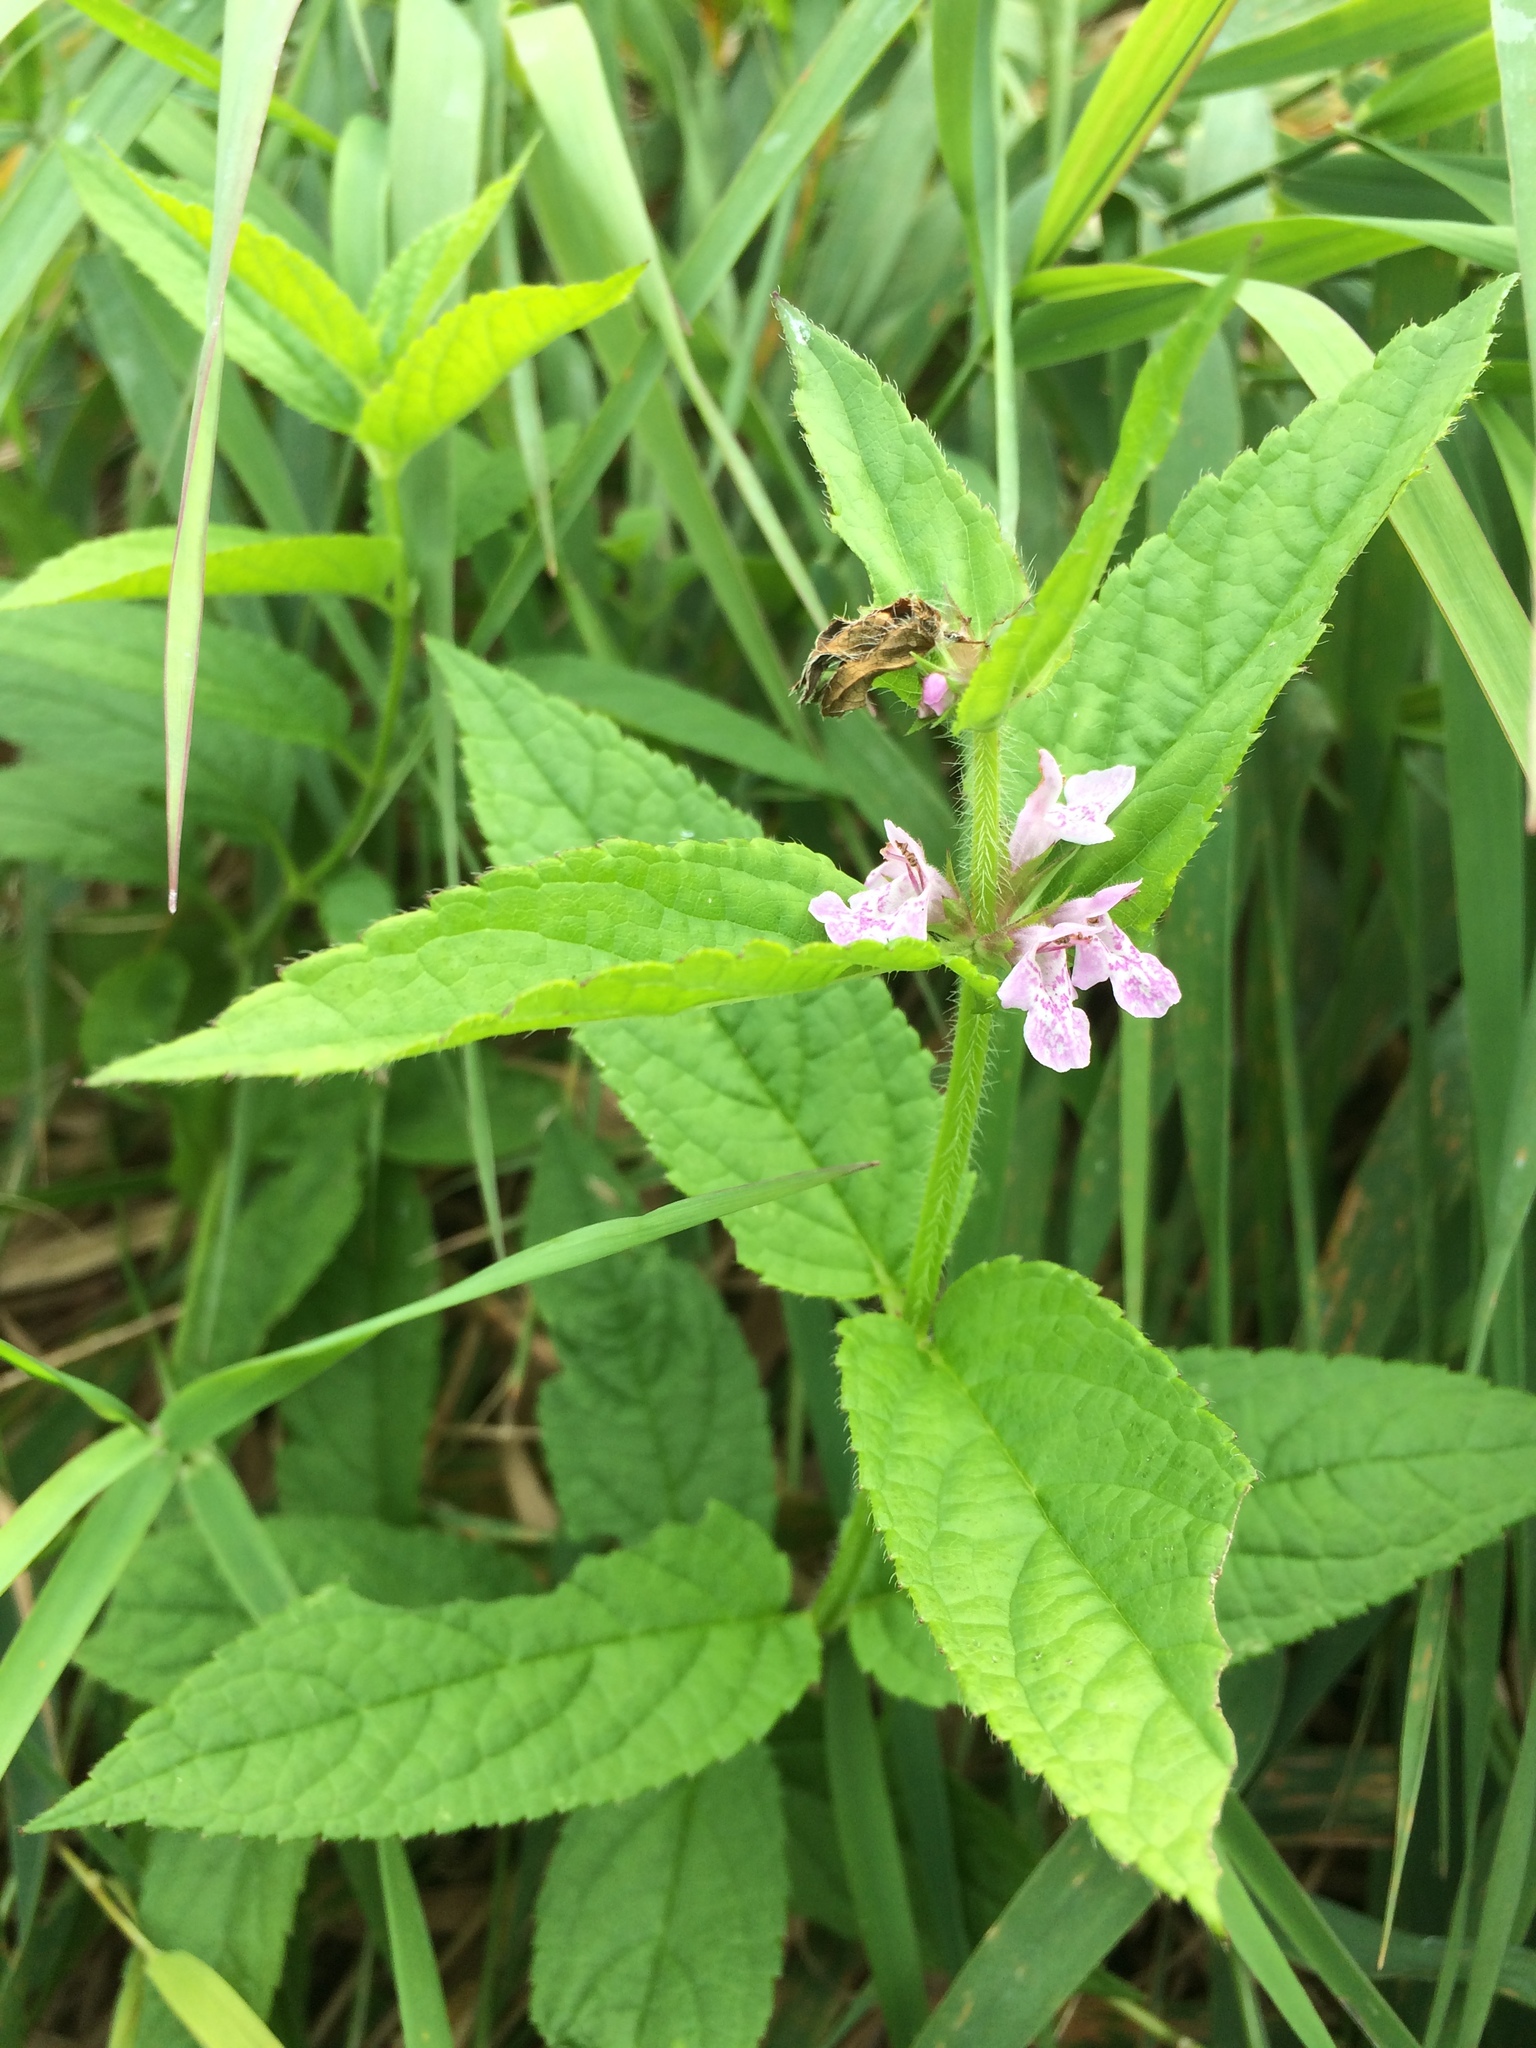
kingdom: Plantae
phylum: Tracheophyta
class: Magnoliopsida
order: Lamiales
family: Lamiaceae
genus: Stachys
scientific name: Stachys hispida
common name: Hispid hedge-nettle
